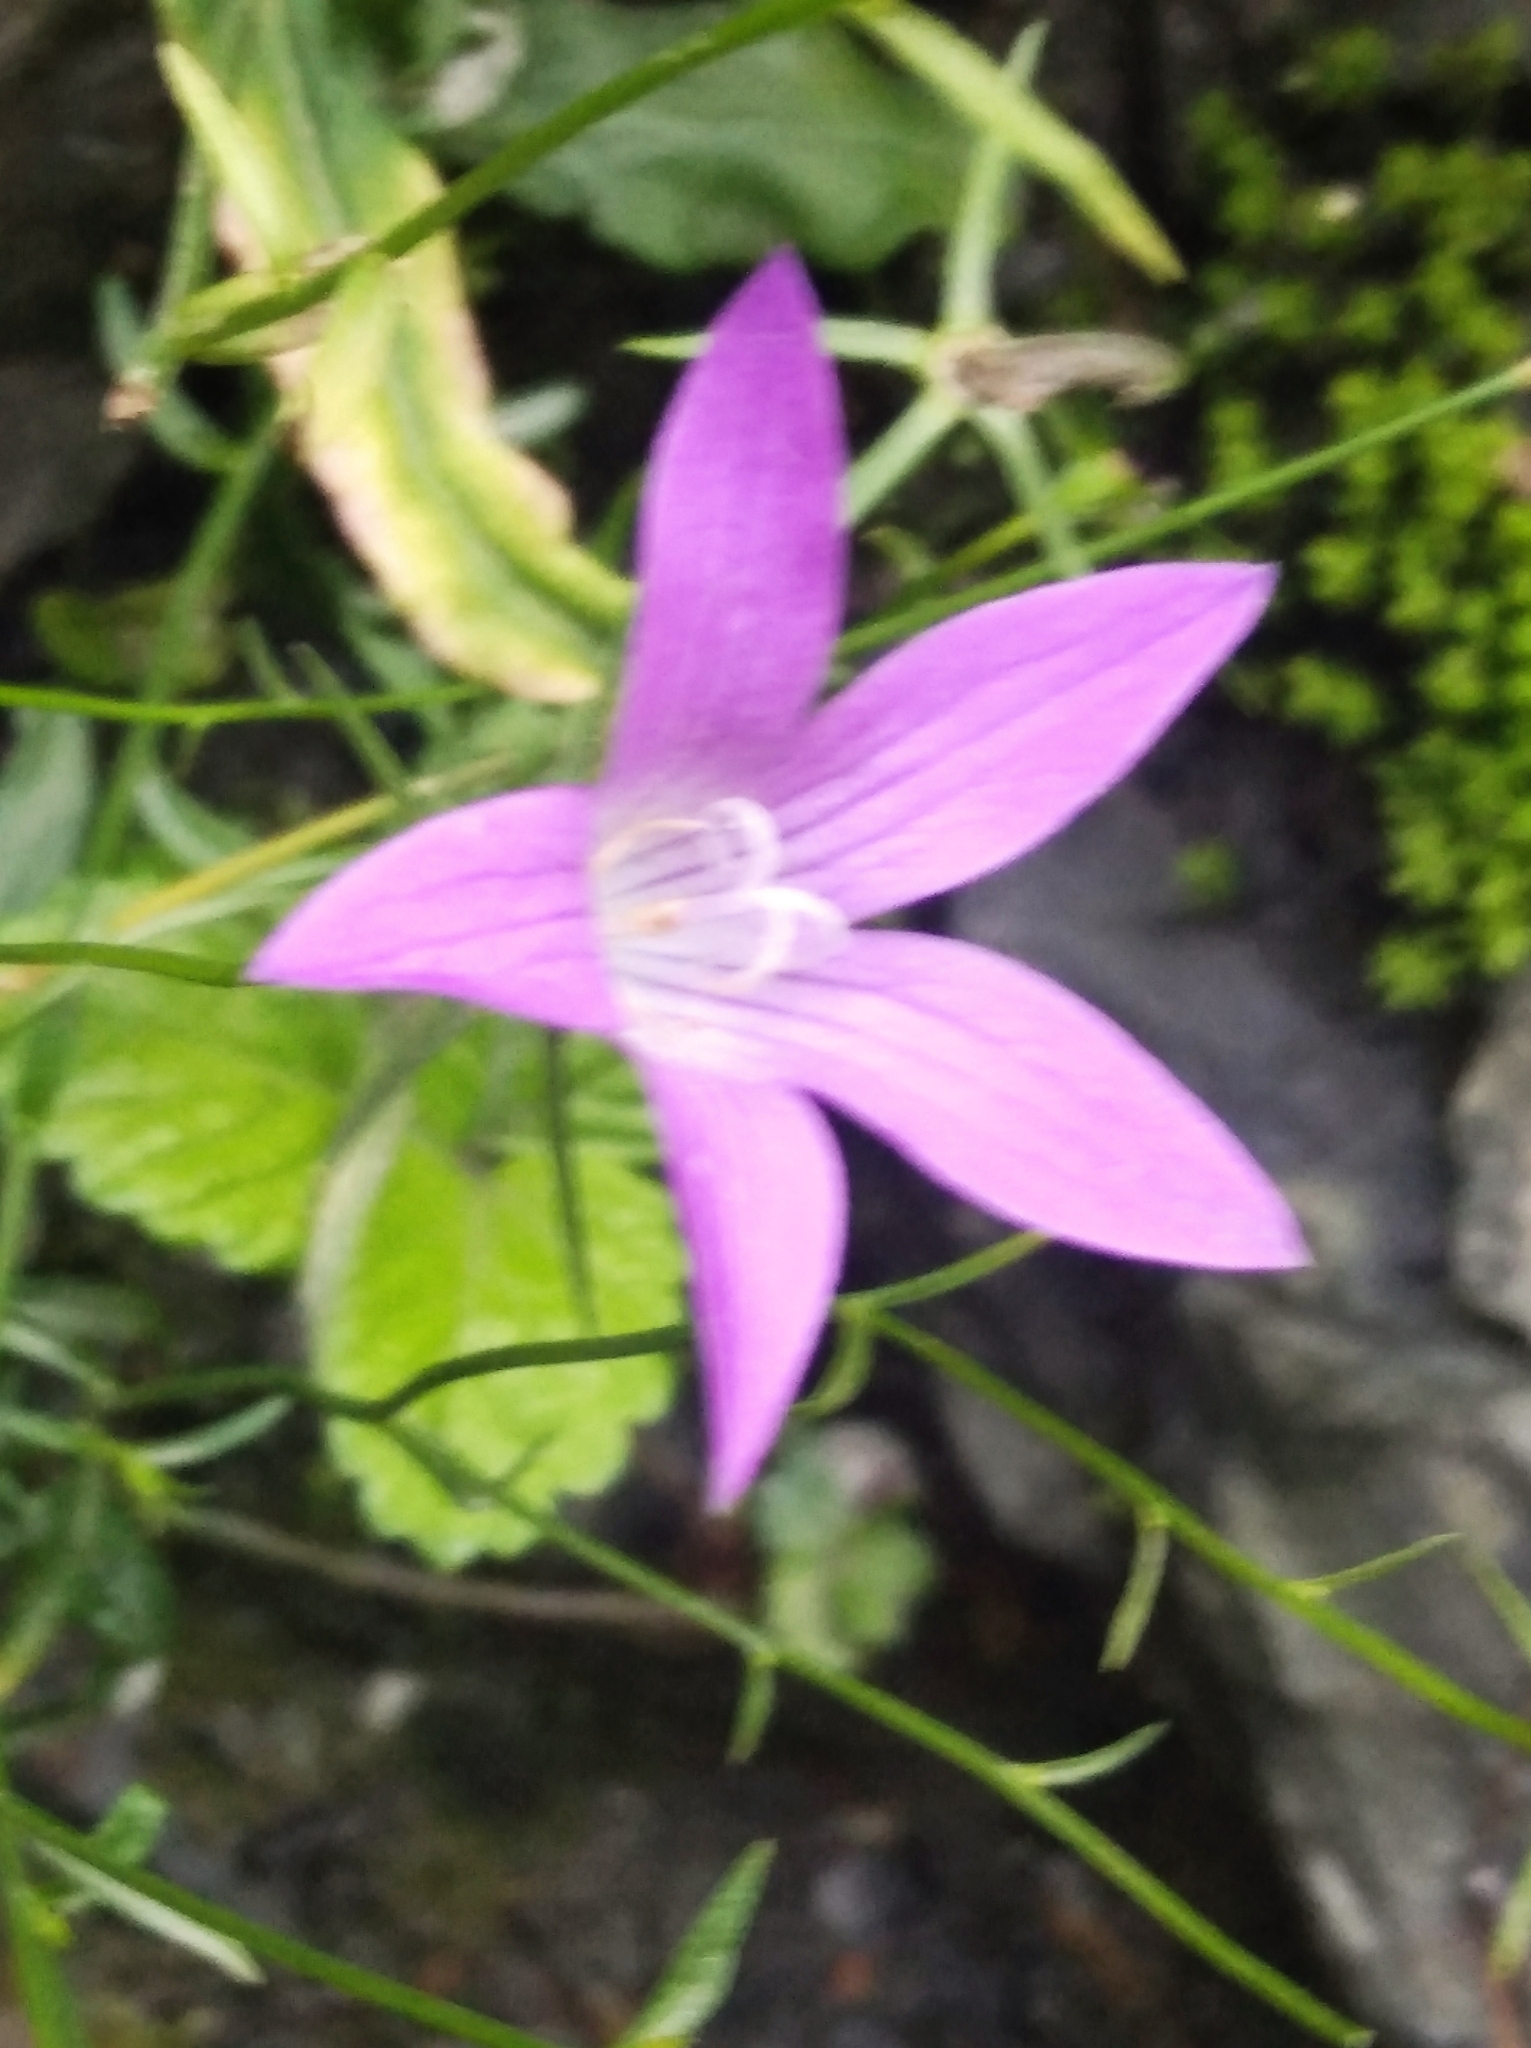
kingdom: Plantae
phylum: Tracheophyta
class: Magnoliopsida
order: Asterales
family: Campanulaceae
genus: Campanula
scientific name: Campanula patula
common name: Spreading bellflower
